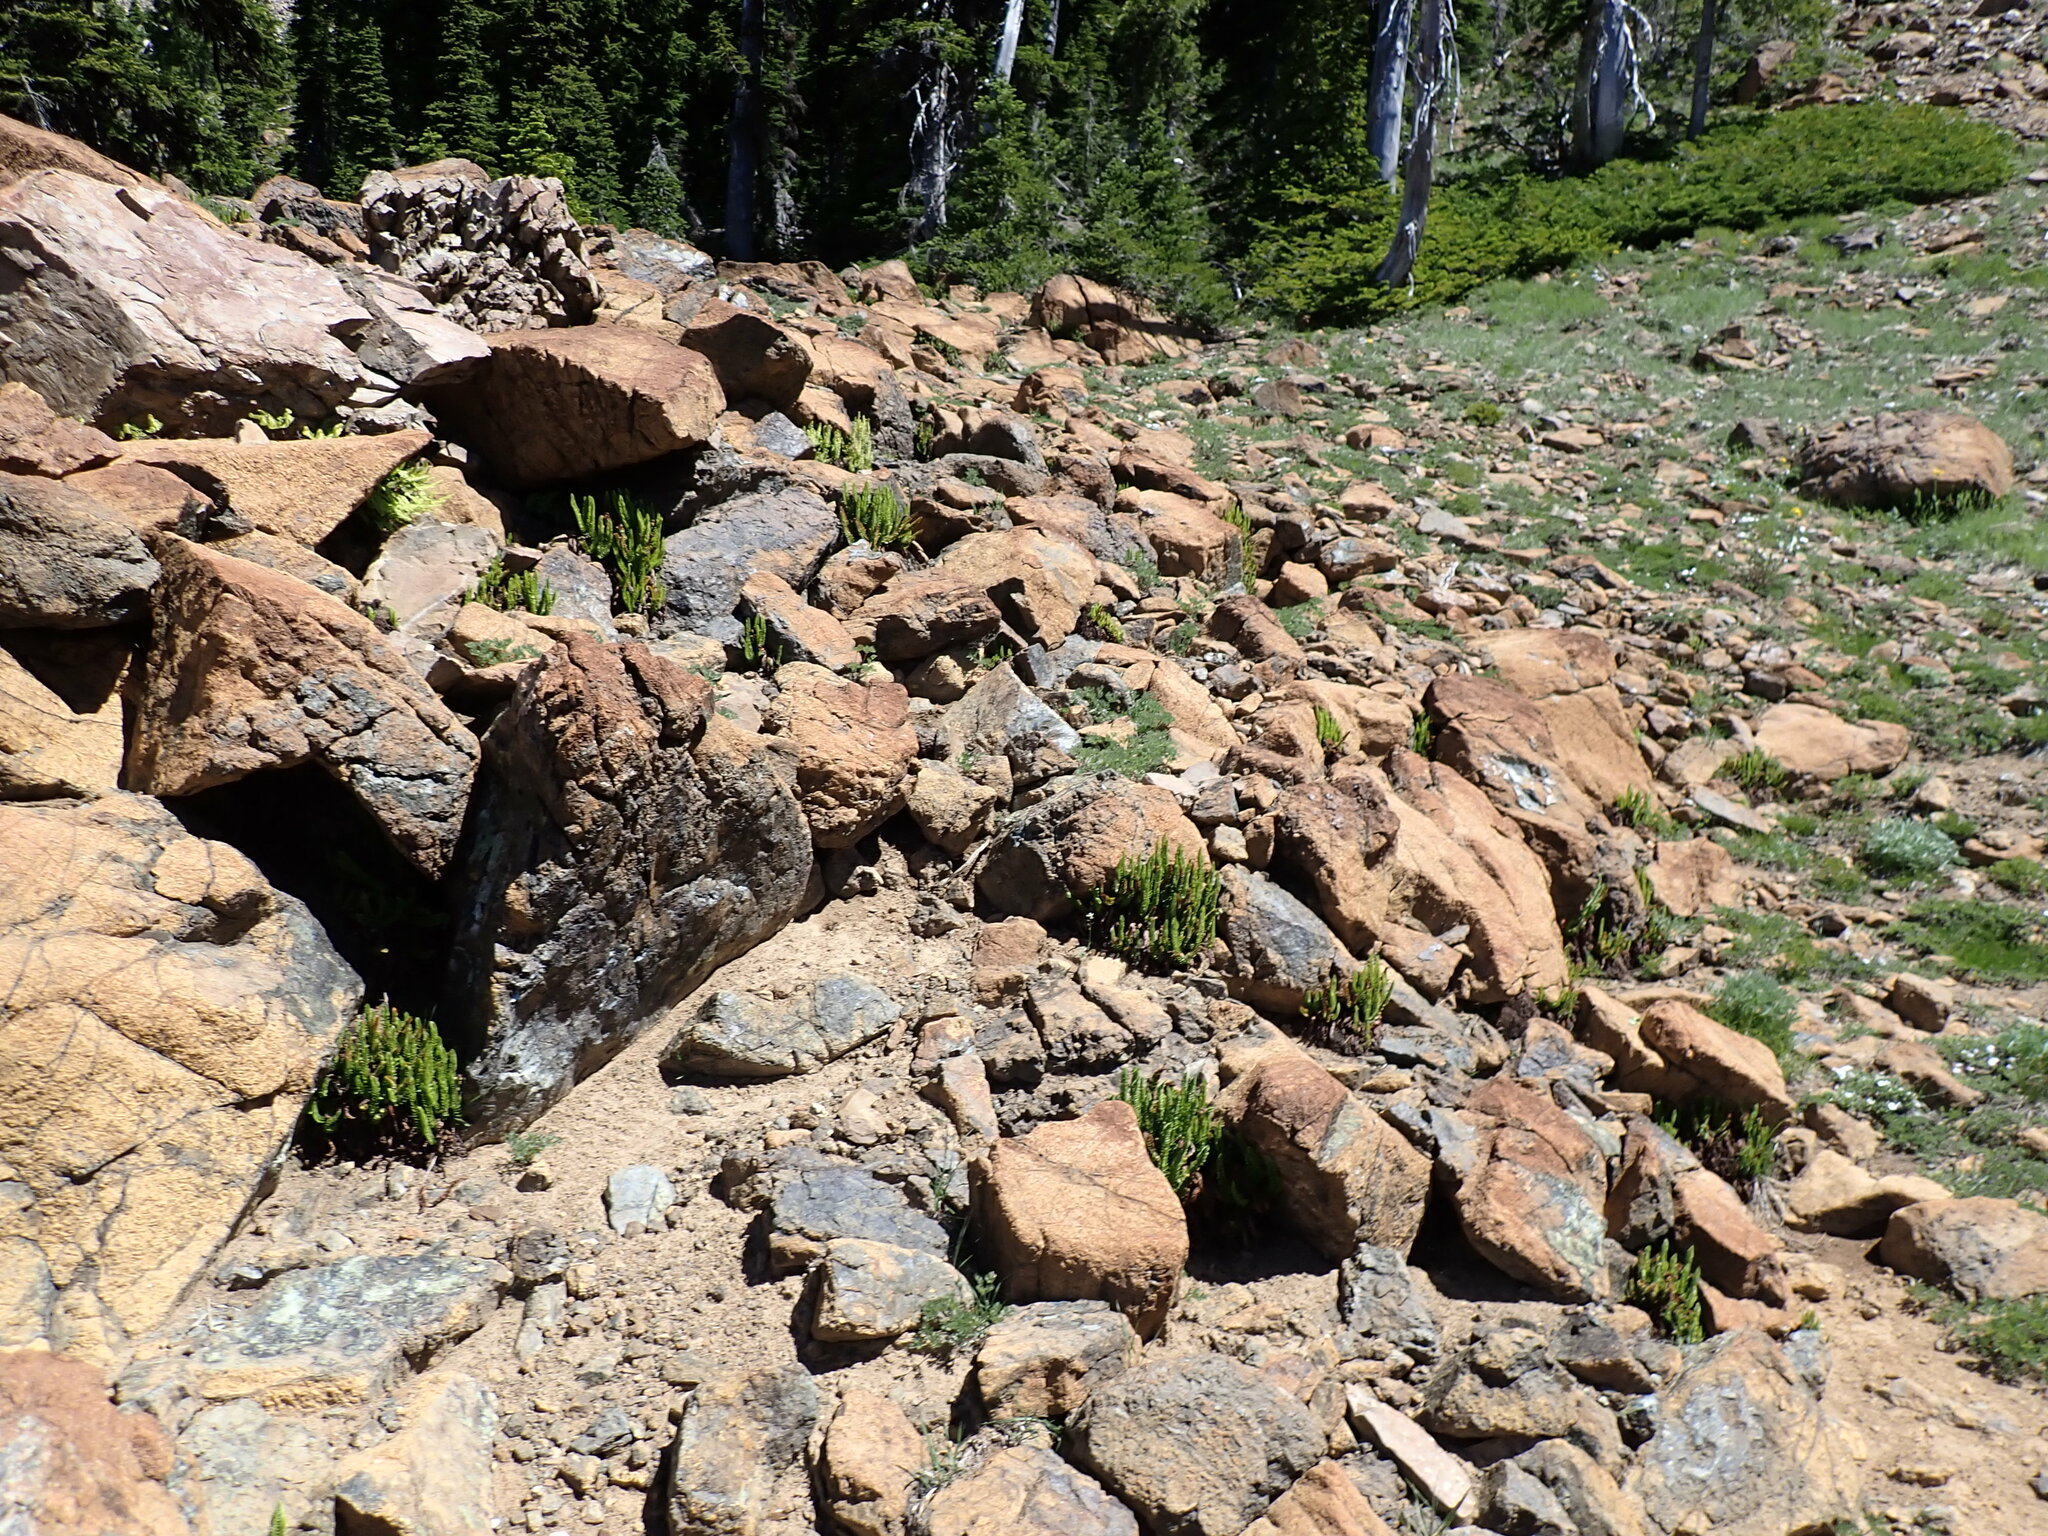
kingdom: Plantae
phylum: Tracheophyta
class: Polypodiopsida
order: Polypodiales
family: Dryopteridaceae
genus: Polystichum
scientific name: Polystichum lemmonii
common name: Lemmon's holly fern
